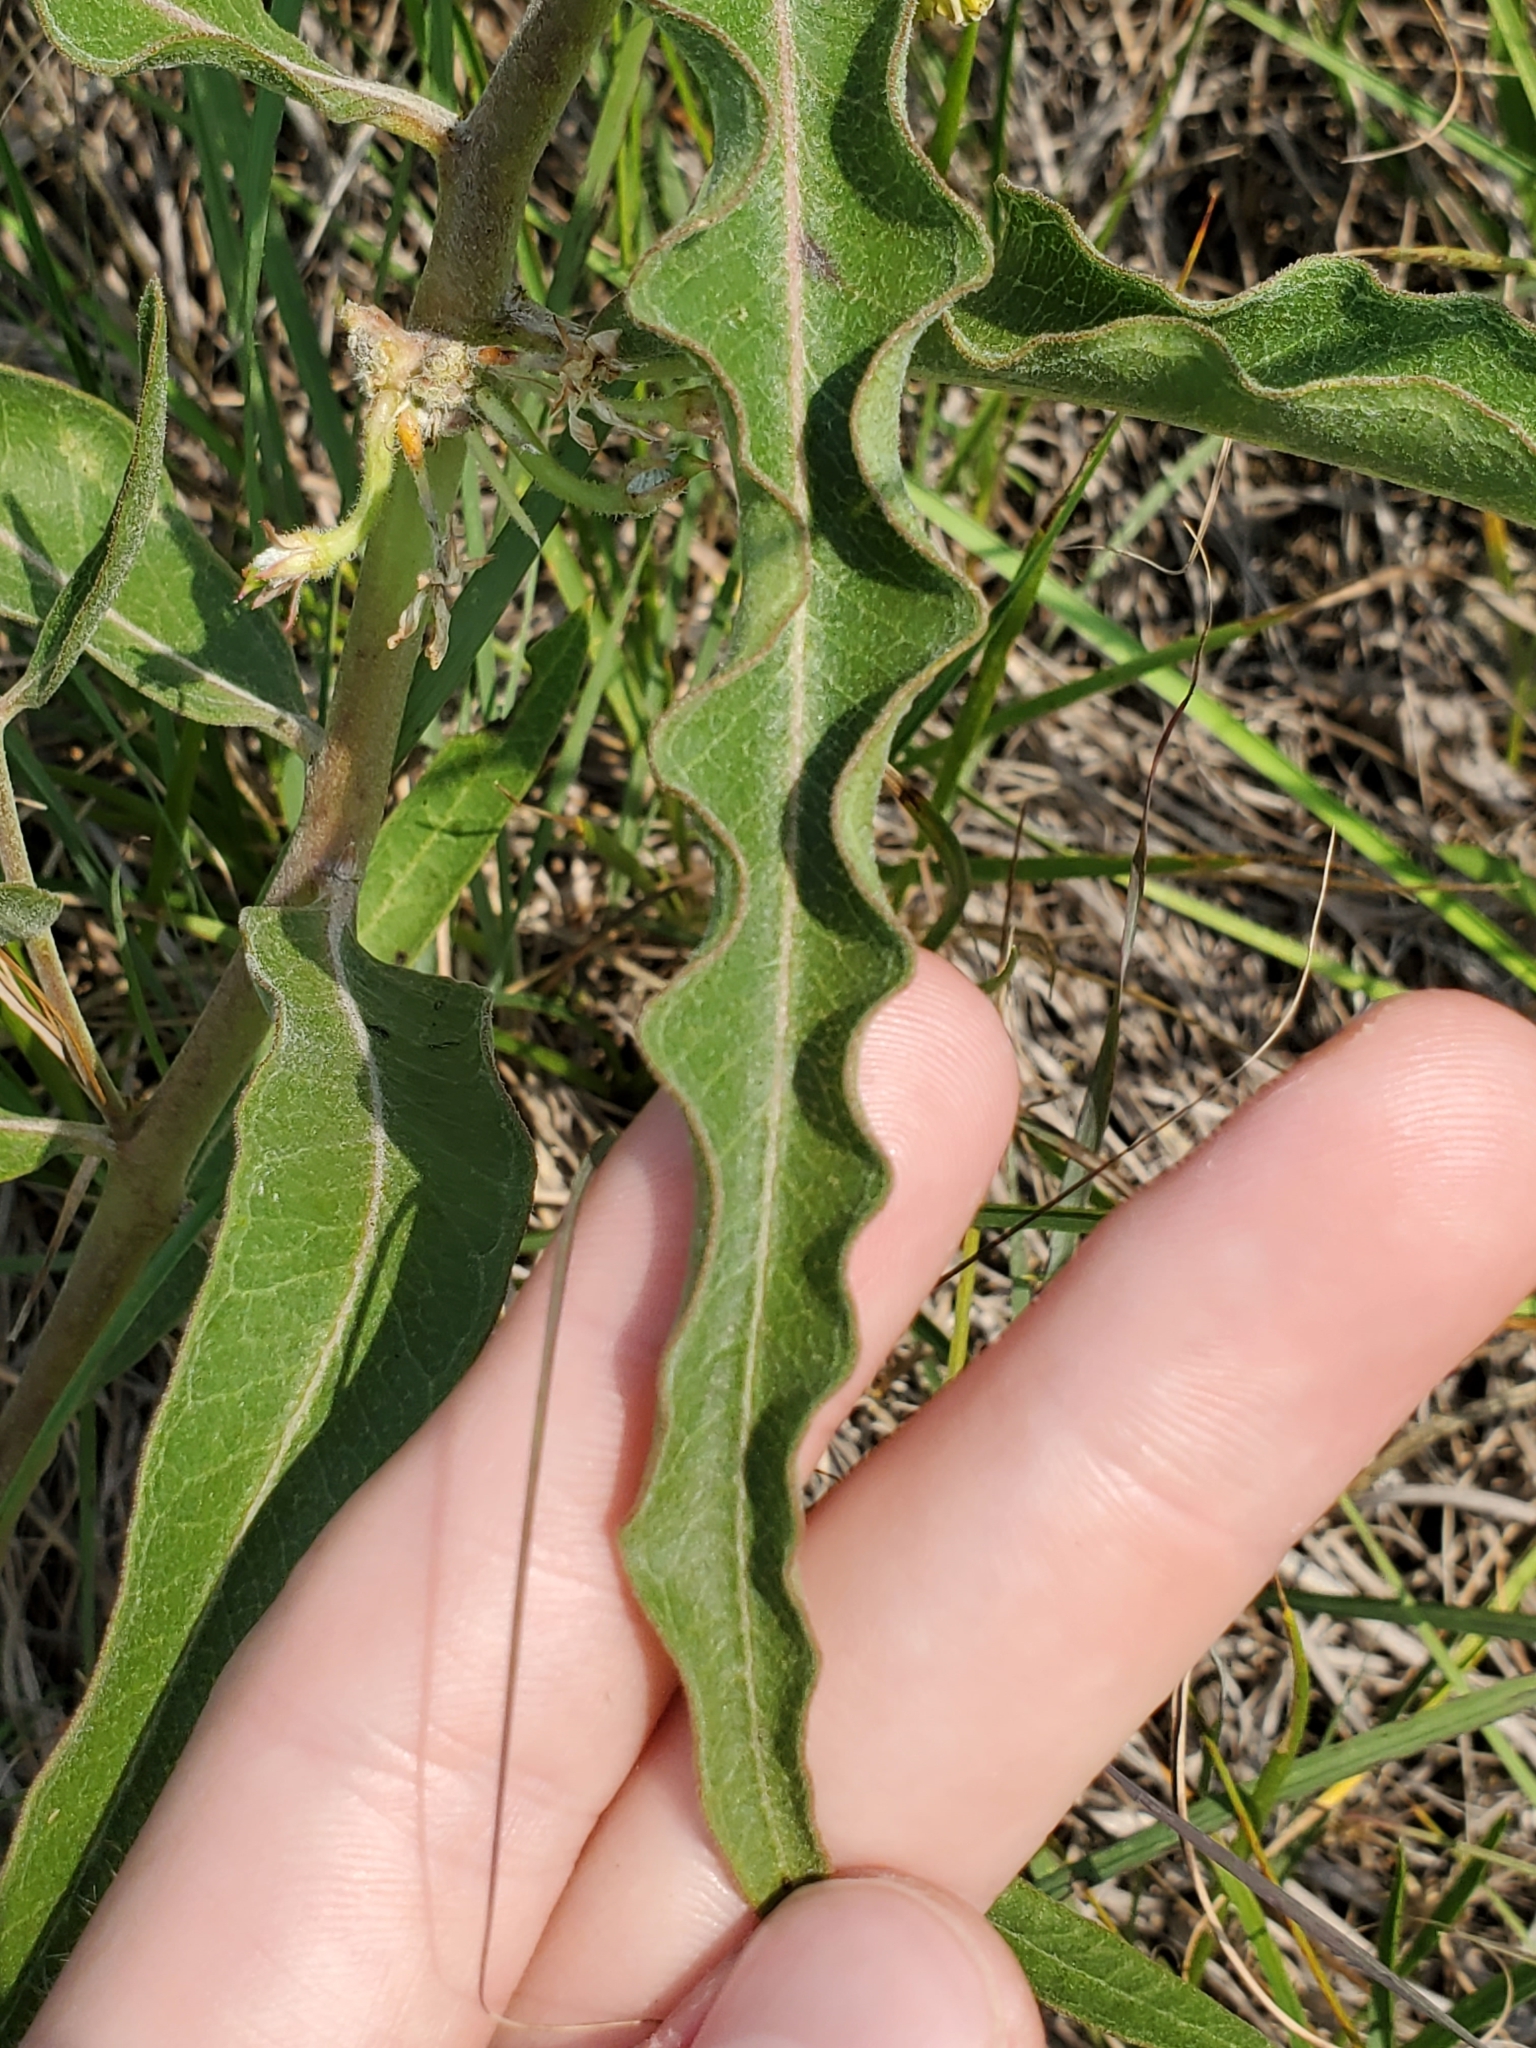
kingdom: Plantae
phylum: Tracheophyta
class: Magnoliopsida
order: Gentianales
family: Apocynaceae
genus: Asclepias
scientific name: Asclepias viridiflora
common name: Green comet milkweed
